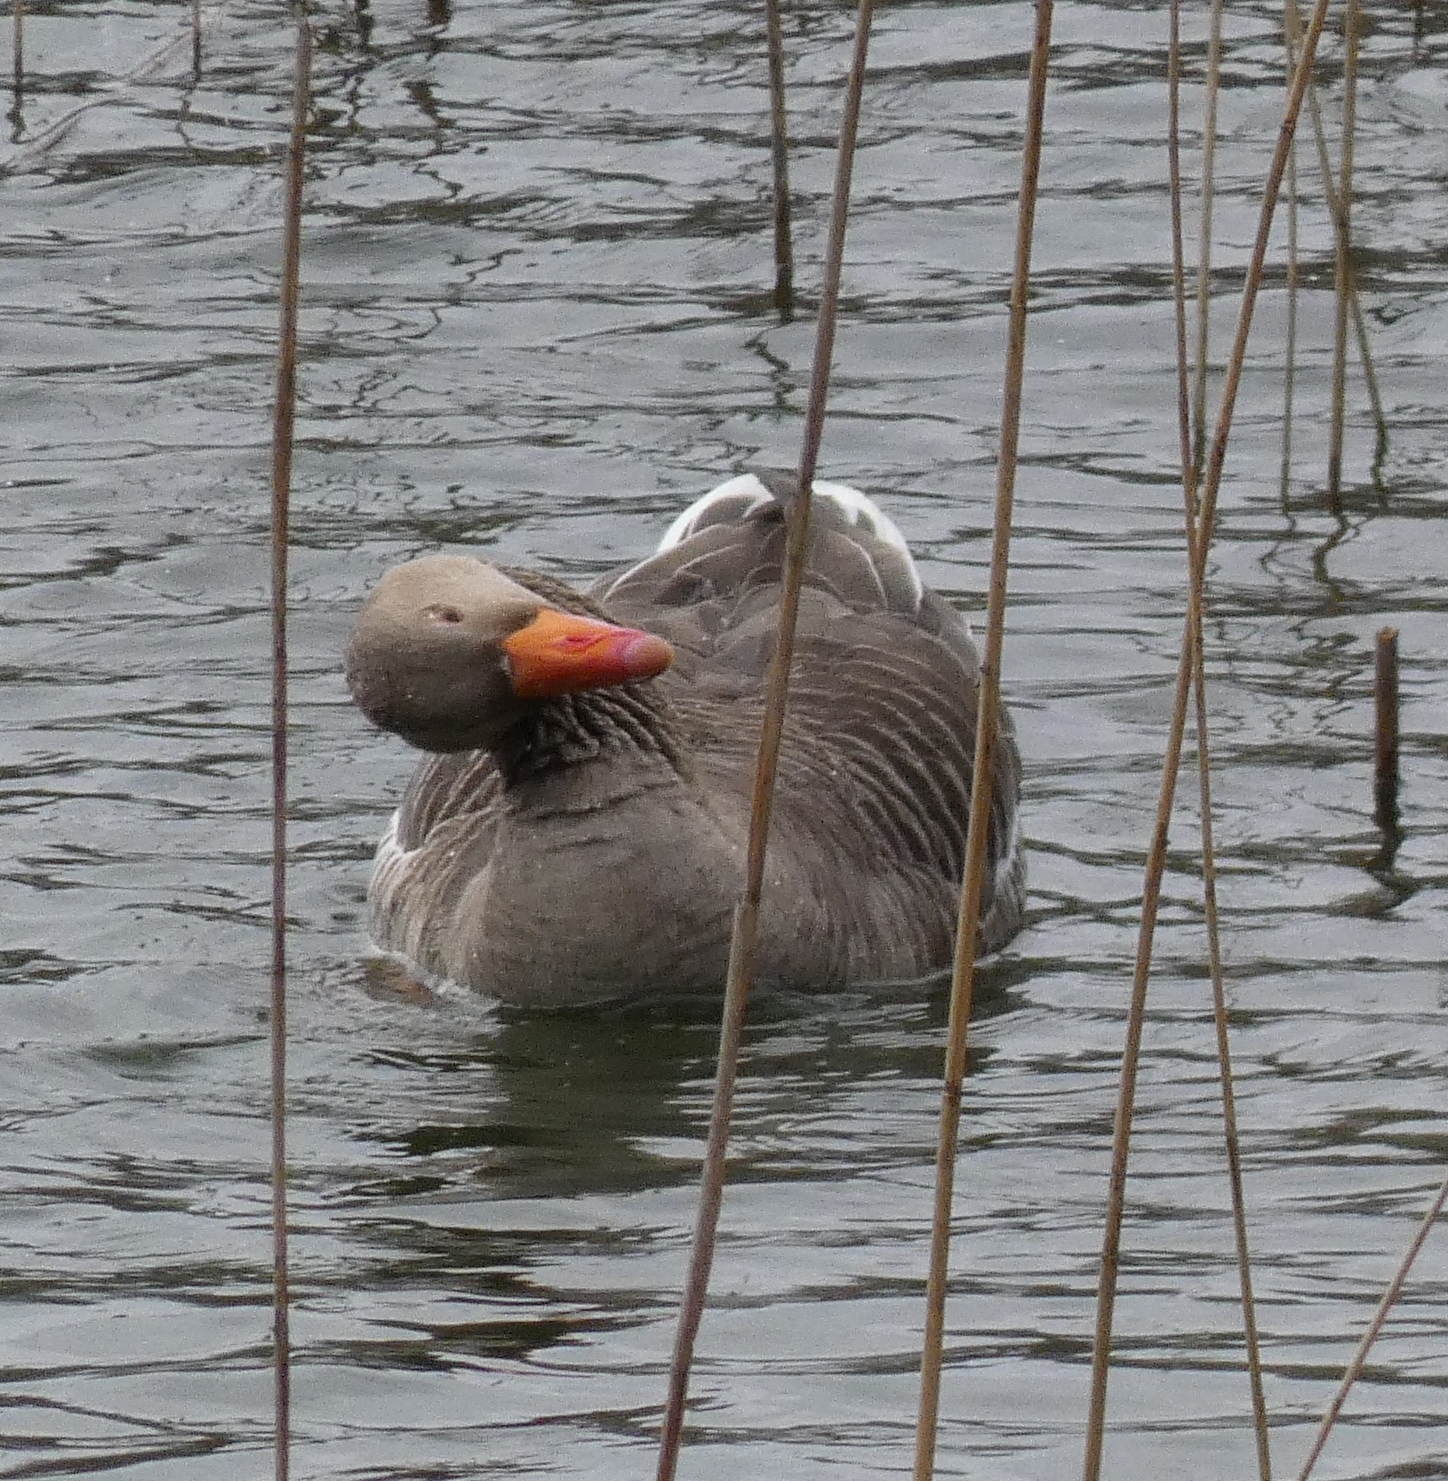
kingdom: Animalia
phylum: Chordata
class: Aves
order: Anseriformes
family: Anatidae
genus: Anser
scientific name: Anser anser
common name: Greylag goose
